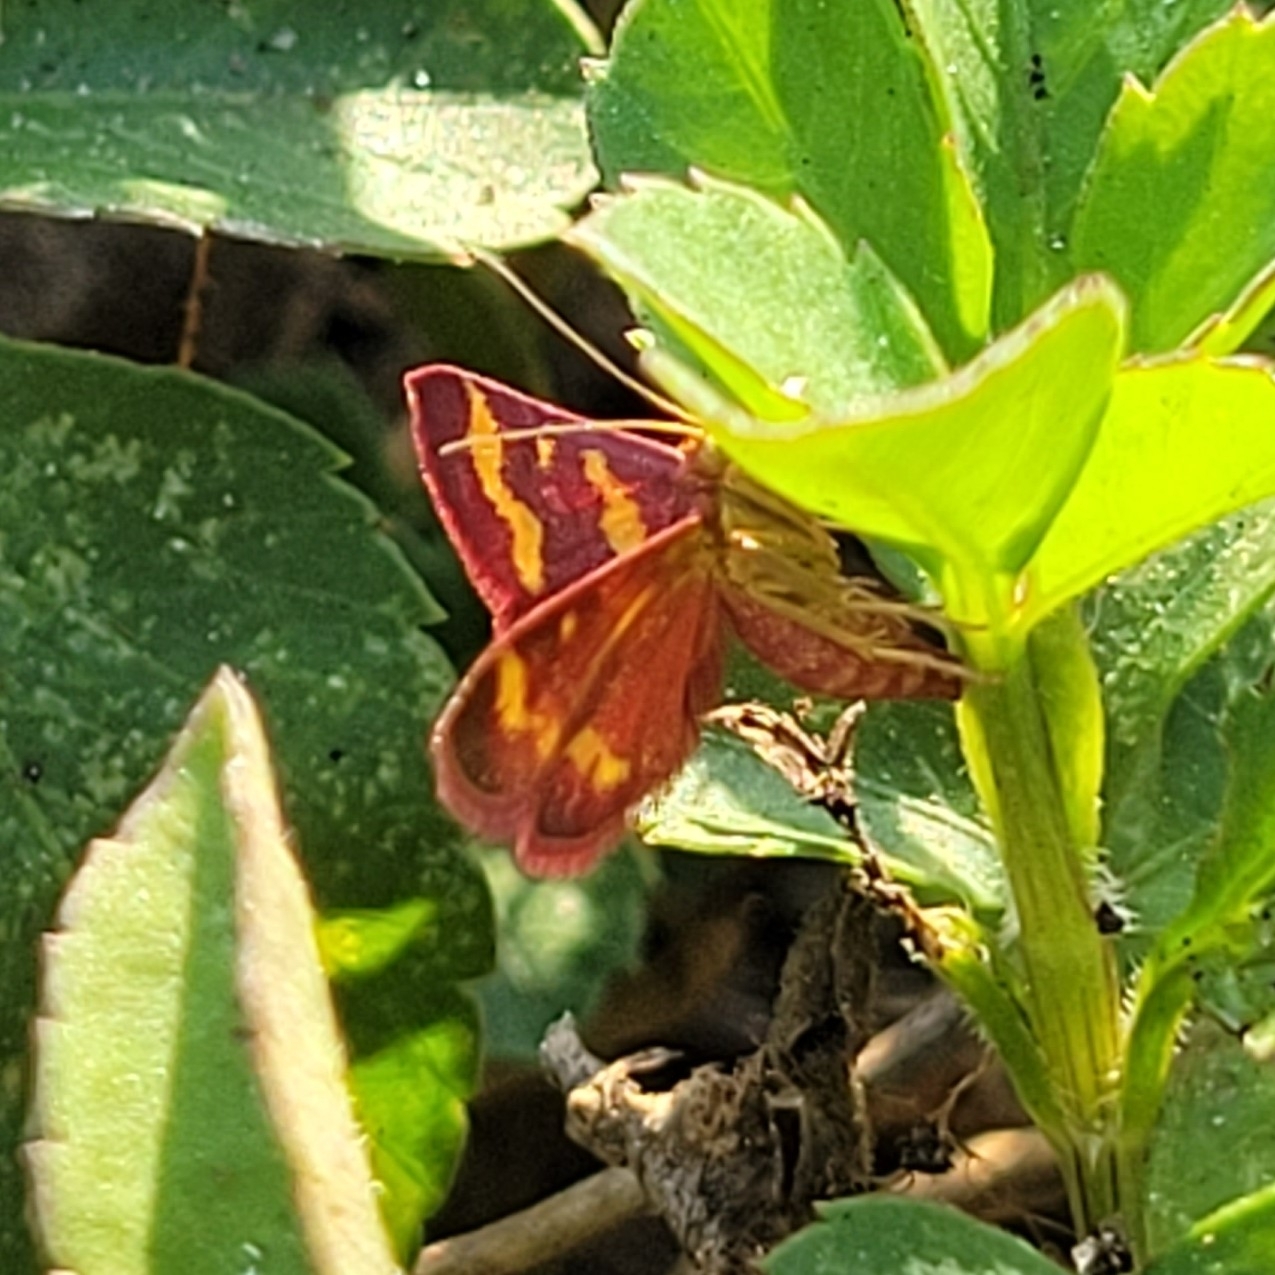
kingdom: Animalia
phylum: Arthropoda
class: Insecta
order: Lepidoptera
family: Crambidae
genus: Pyrausta
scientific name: Pyrausta tyralis
